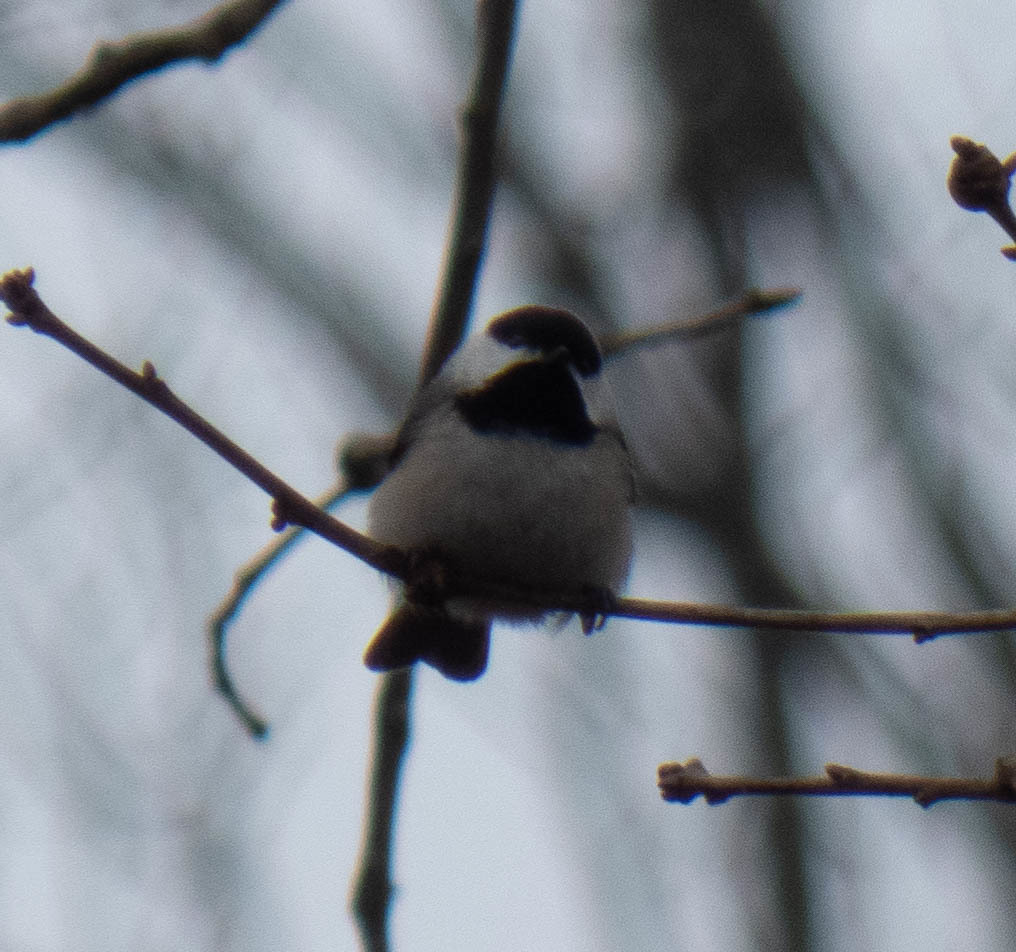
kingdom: Animalia
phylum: Chordata
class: Aves
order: Passeriformes
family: Paridae
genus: Poecile
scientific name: Poecile carolinensis
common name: Carolina chickadee
